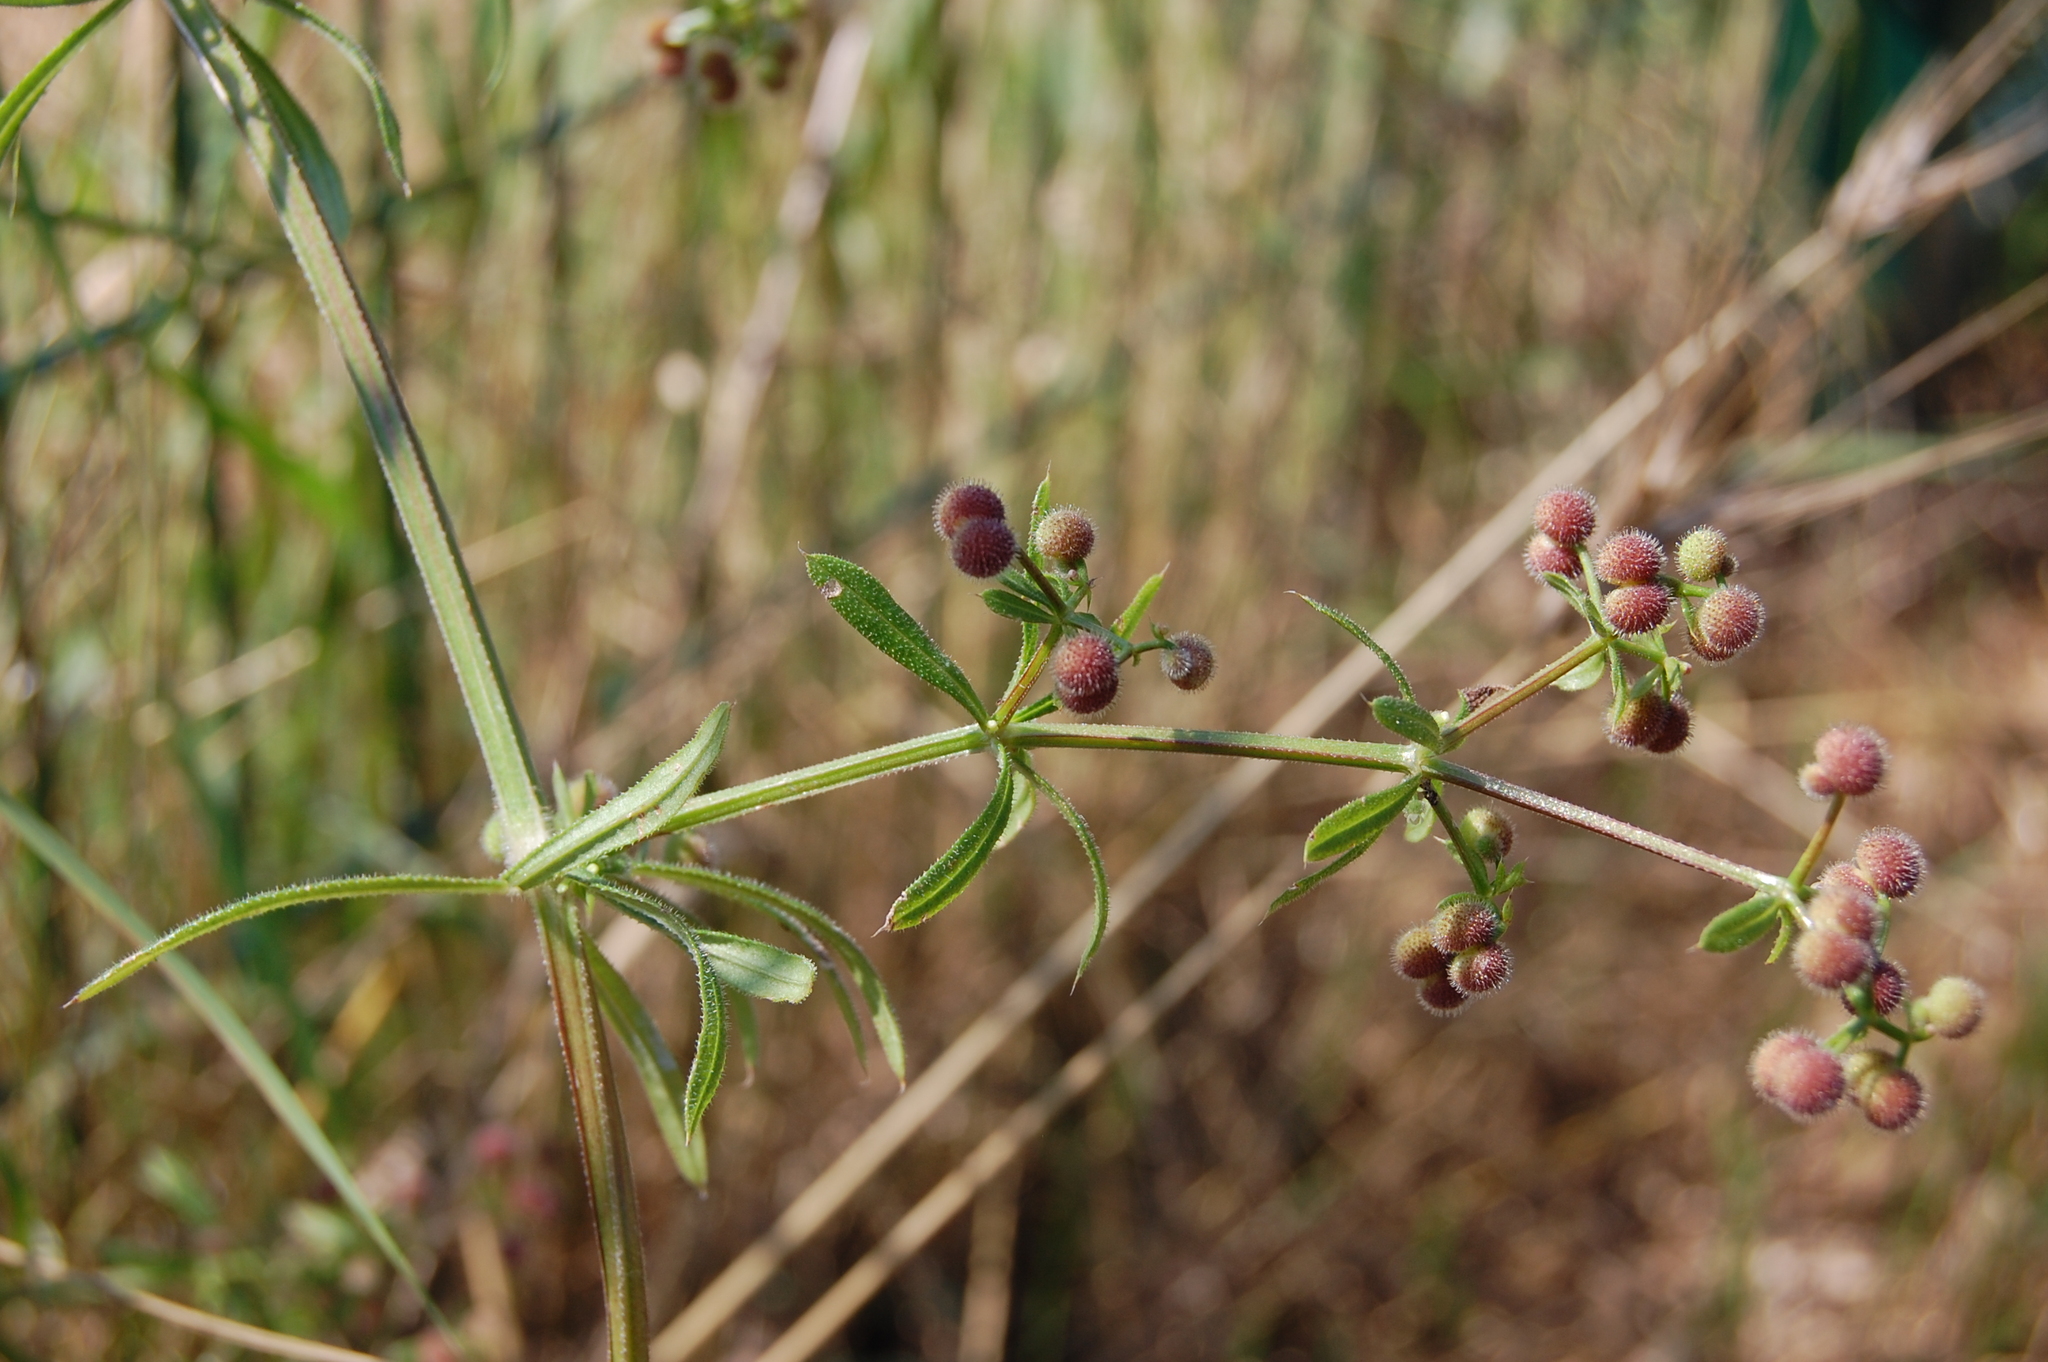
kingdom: Plantae
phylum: Tracheophyta
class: Magnoliopsida
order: Gentianales
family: Rubiaceae
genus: Galium
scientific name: Galium aparine
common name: Cleavers
